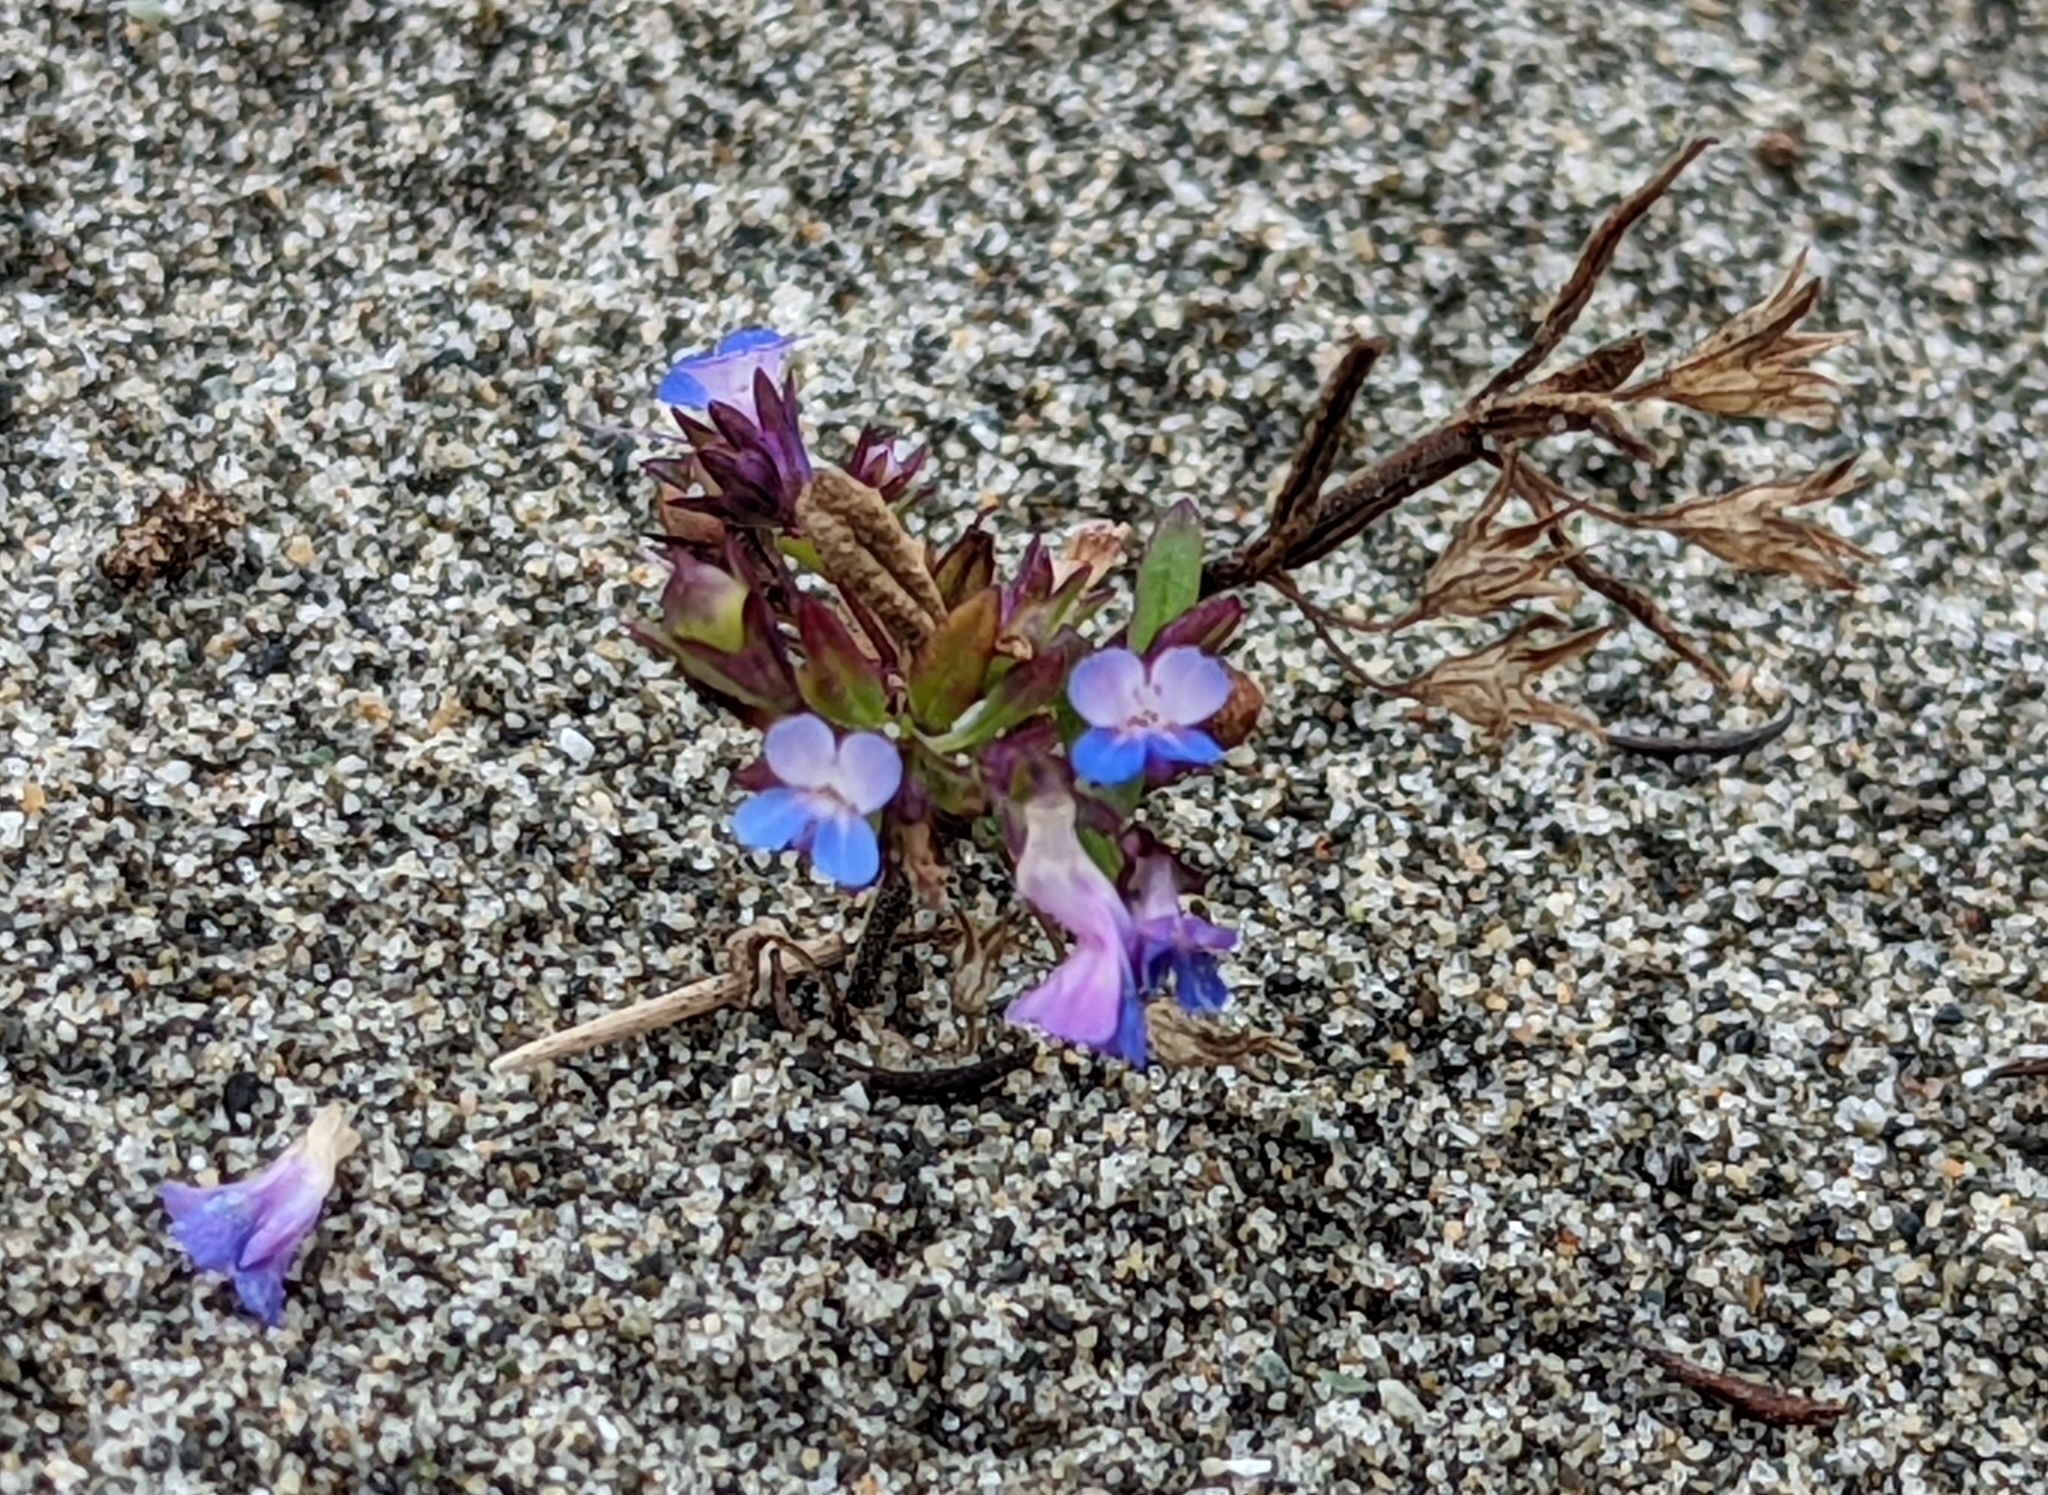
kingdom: Plantae
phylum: Tracheophyta
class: Magnoliopsida
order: Lamiales
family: Plantaginaceae
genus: Collinsia
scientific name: Collinsia parviflora
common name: Blue-lips
